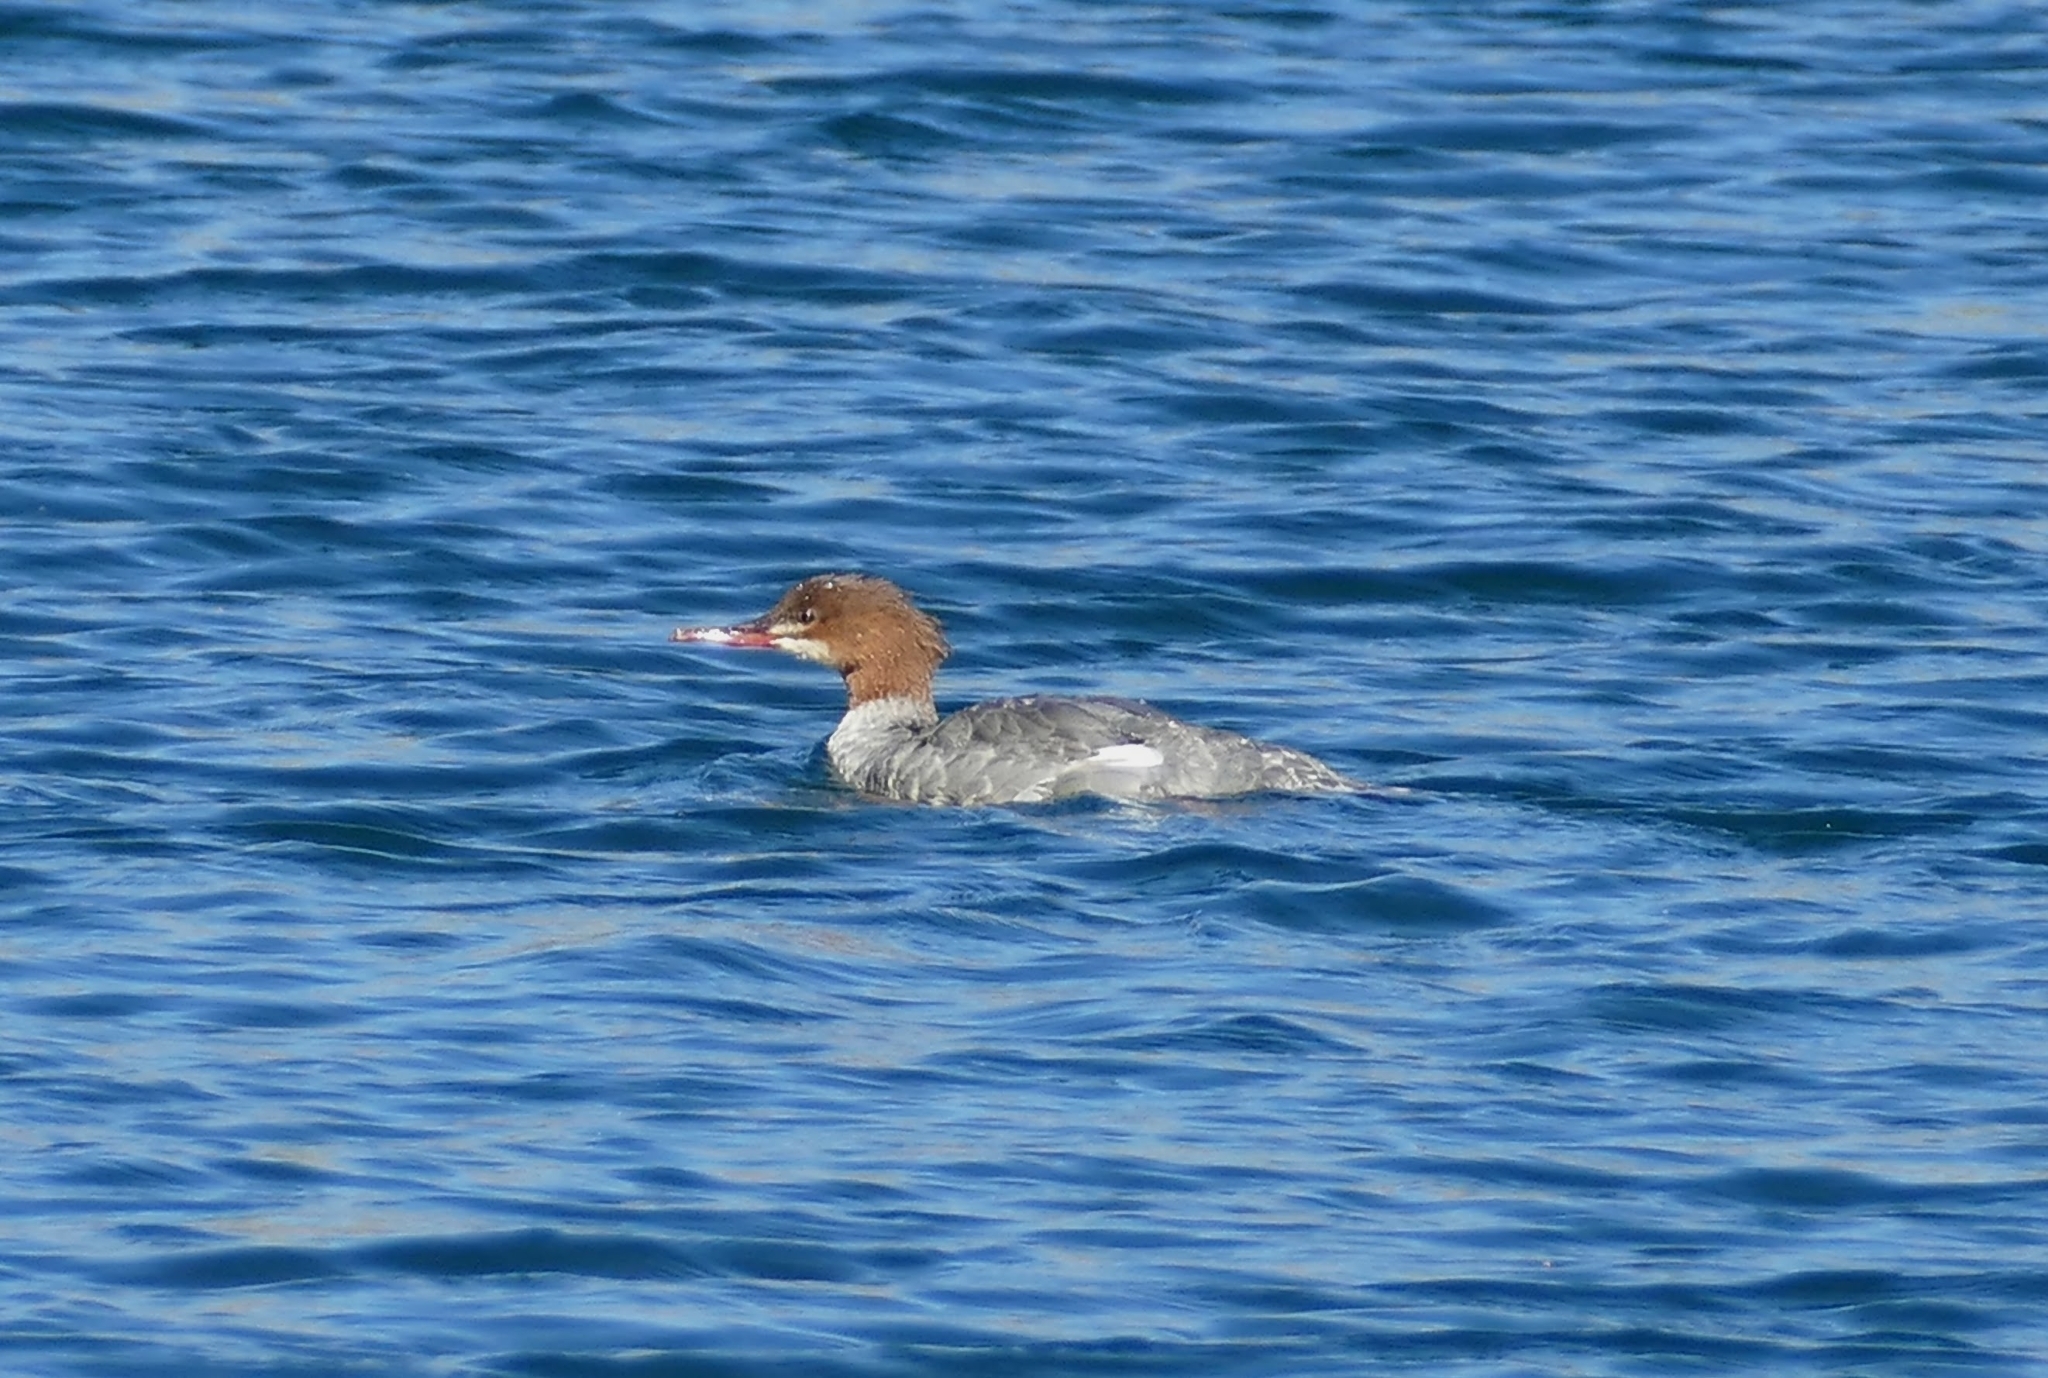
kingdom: Animalia
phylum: Chordata
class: Aves
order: Anseriformes
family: Anatidae
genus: Mergus
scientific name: Mergus merganser
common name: Common merganser
